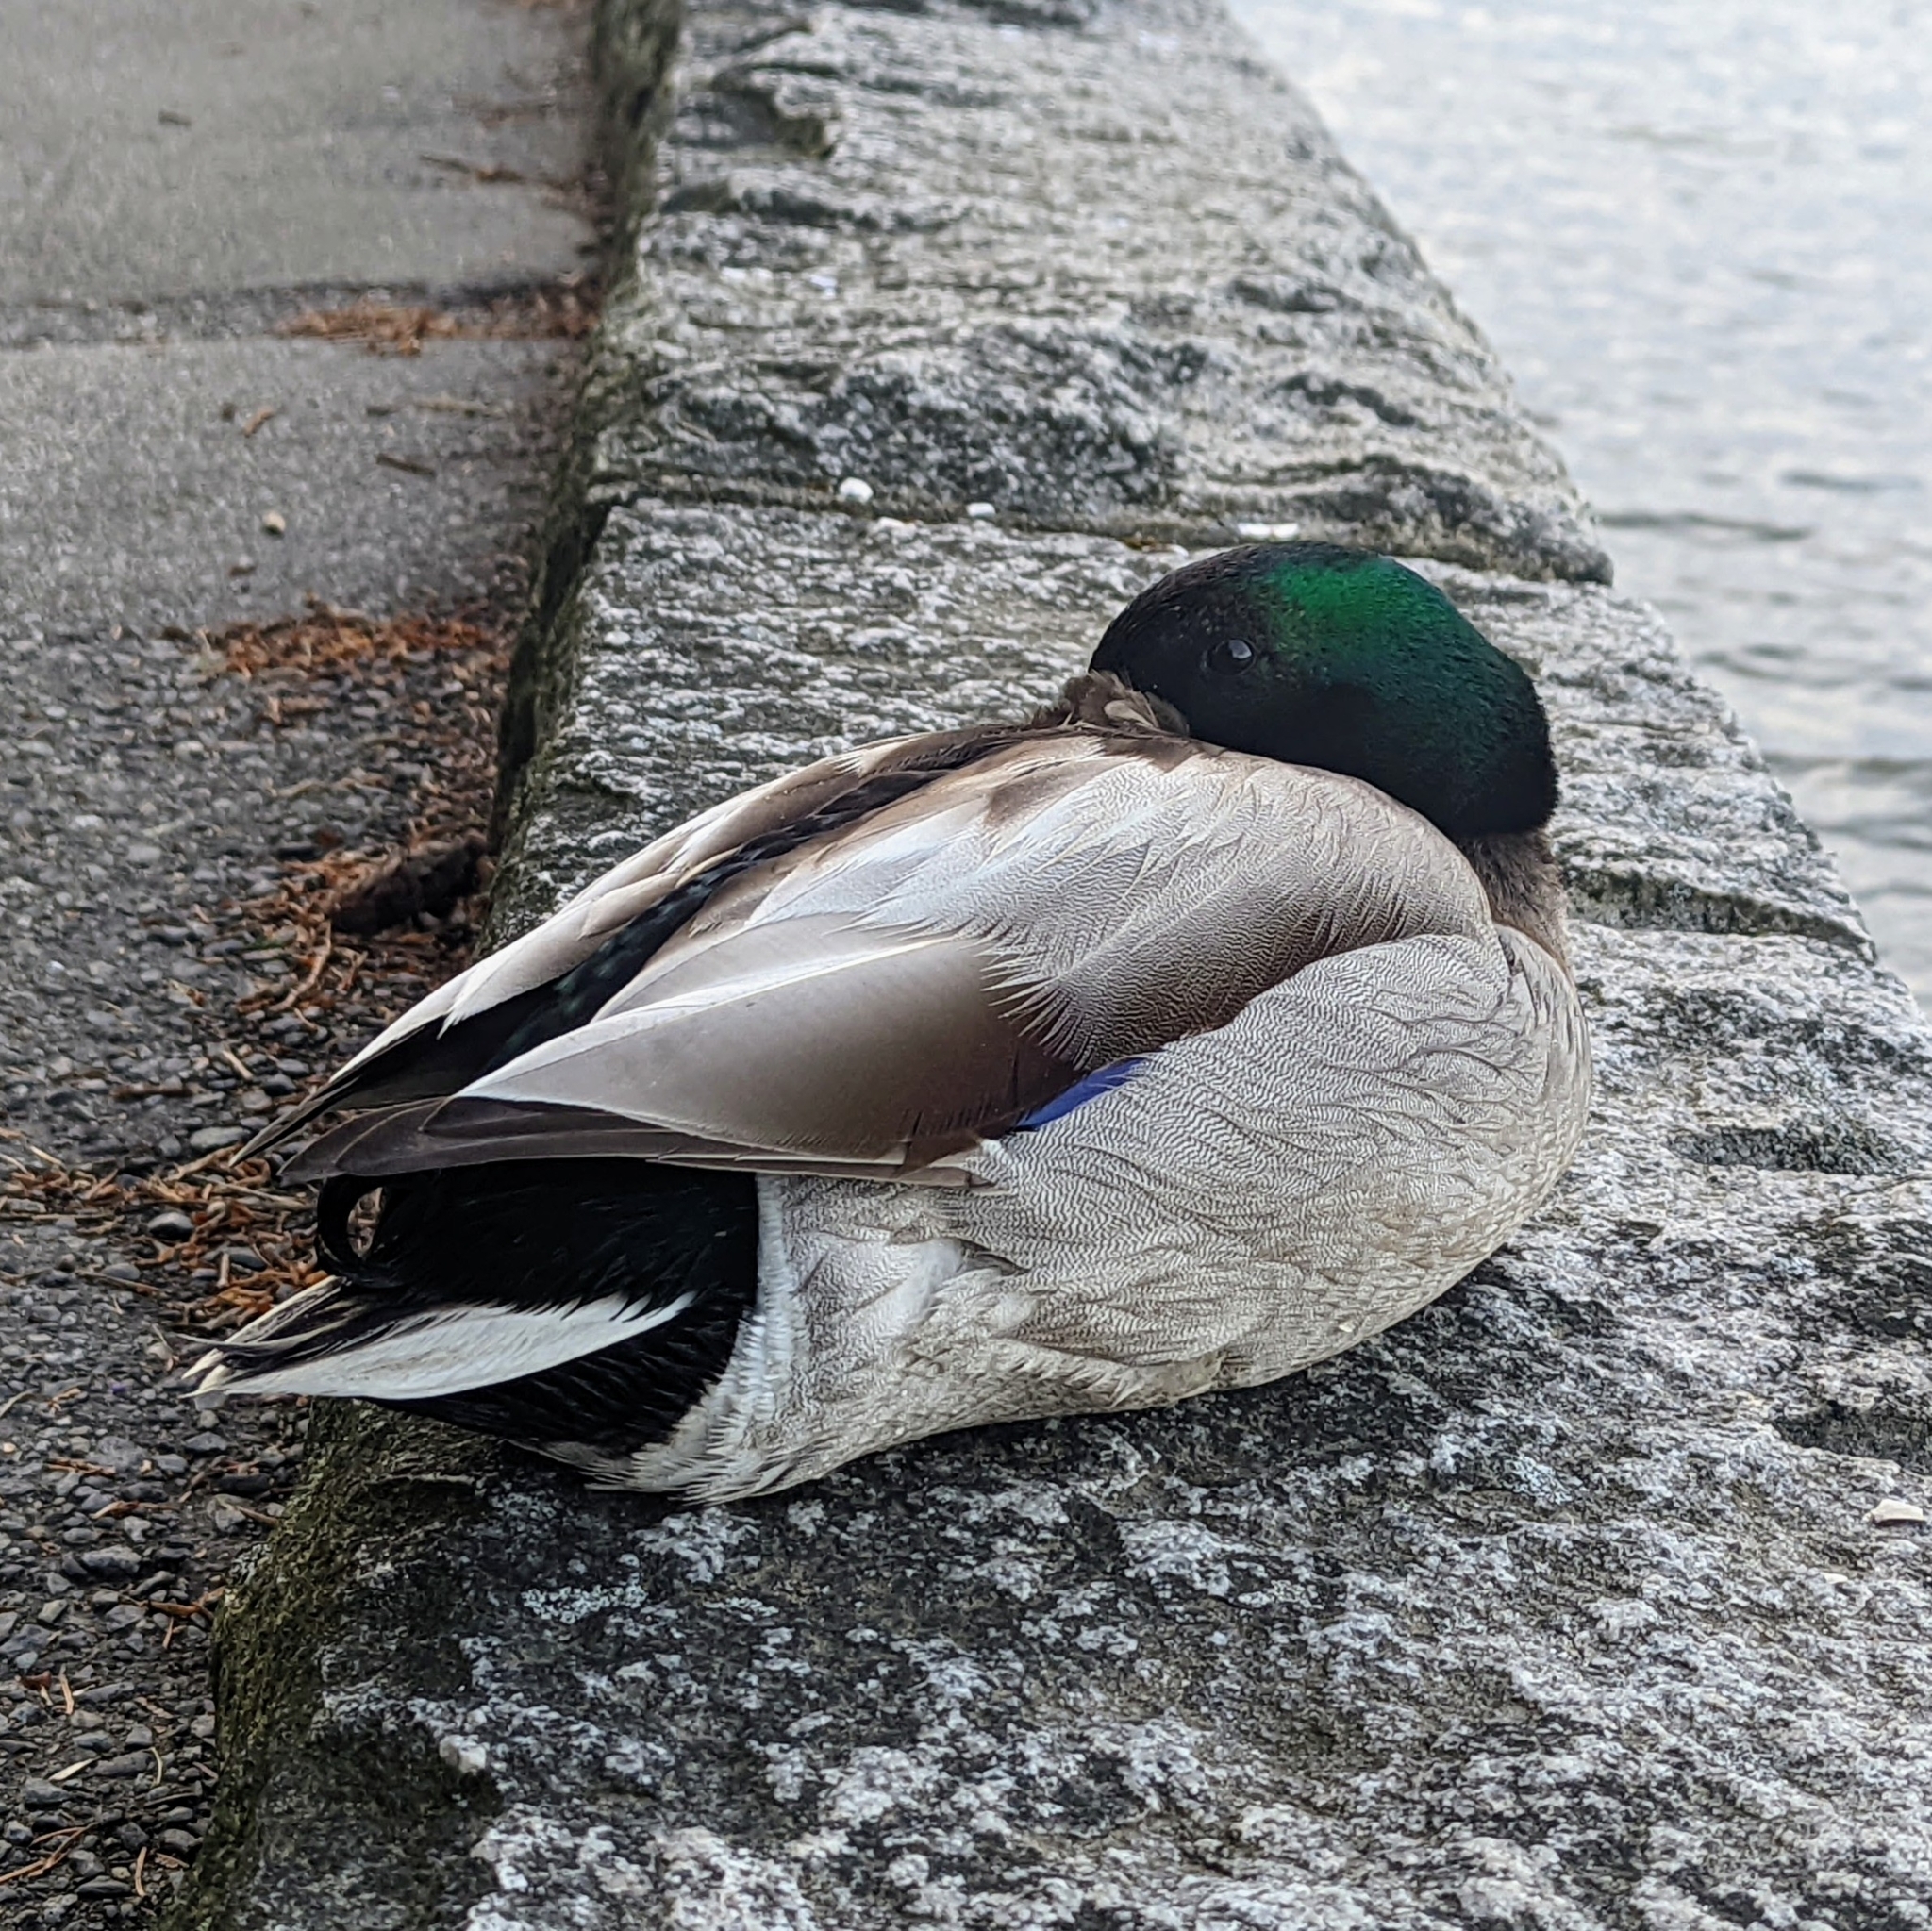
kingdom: Animalia
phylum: Chordata
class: Aves
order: Anseriformes
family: Anatidae
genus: Anas
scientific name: Anas platyrhynchos
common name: Mallard
